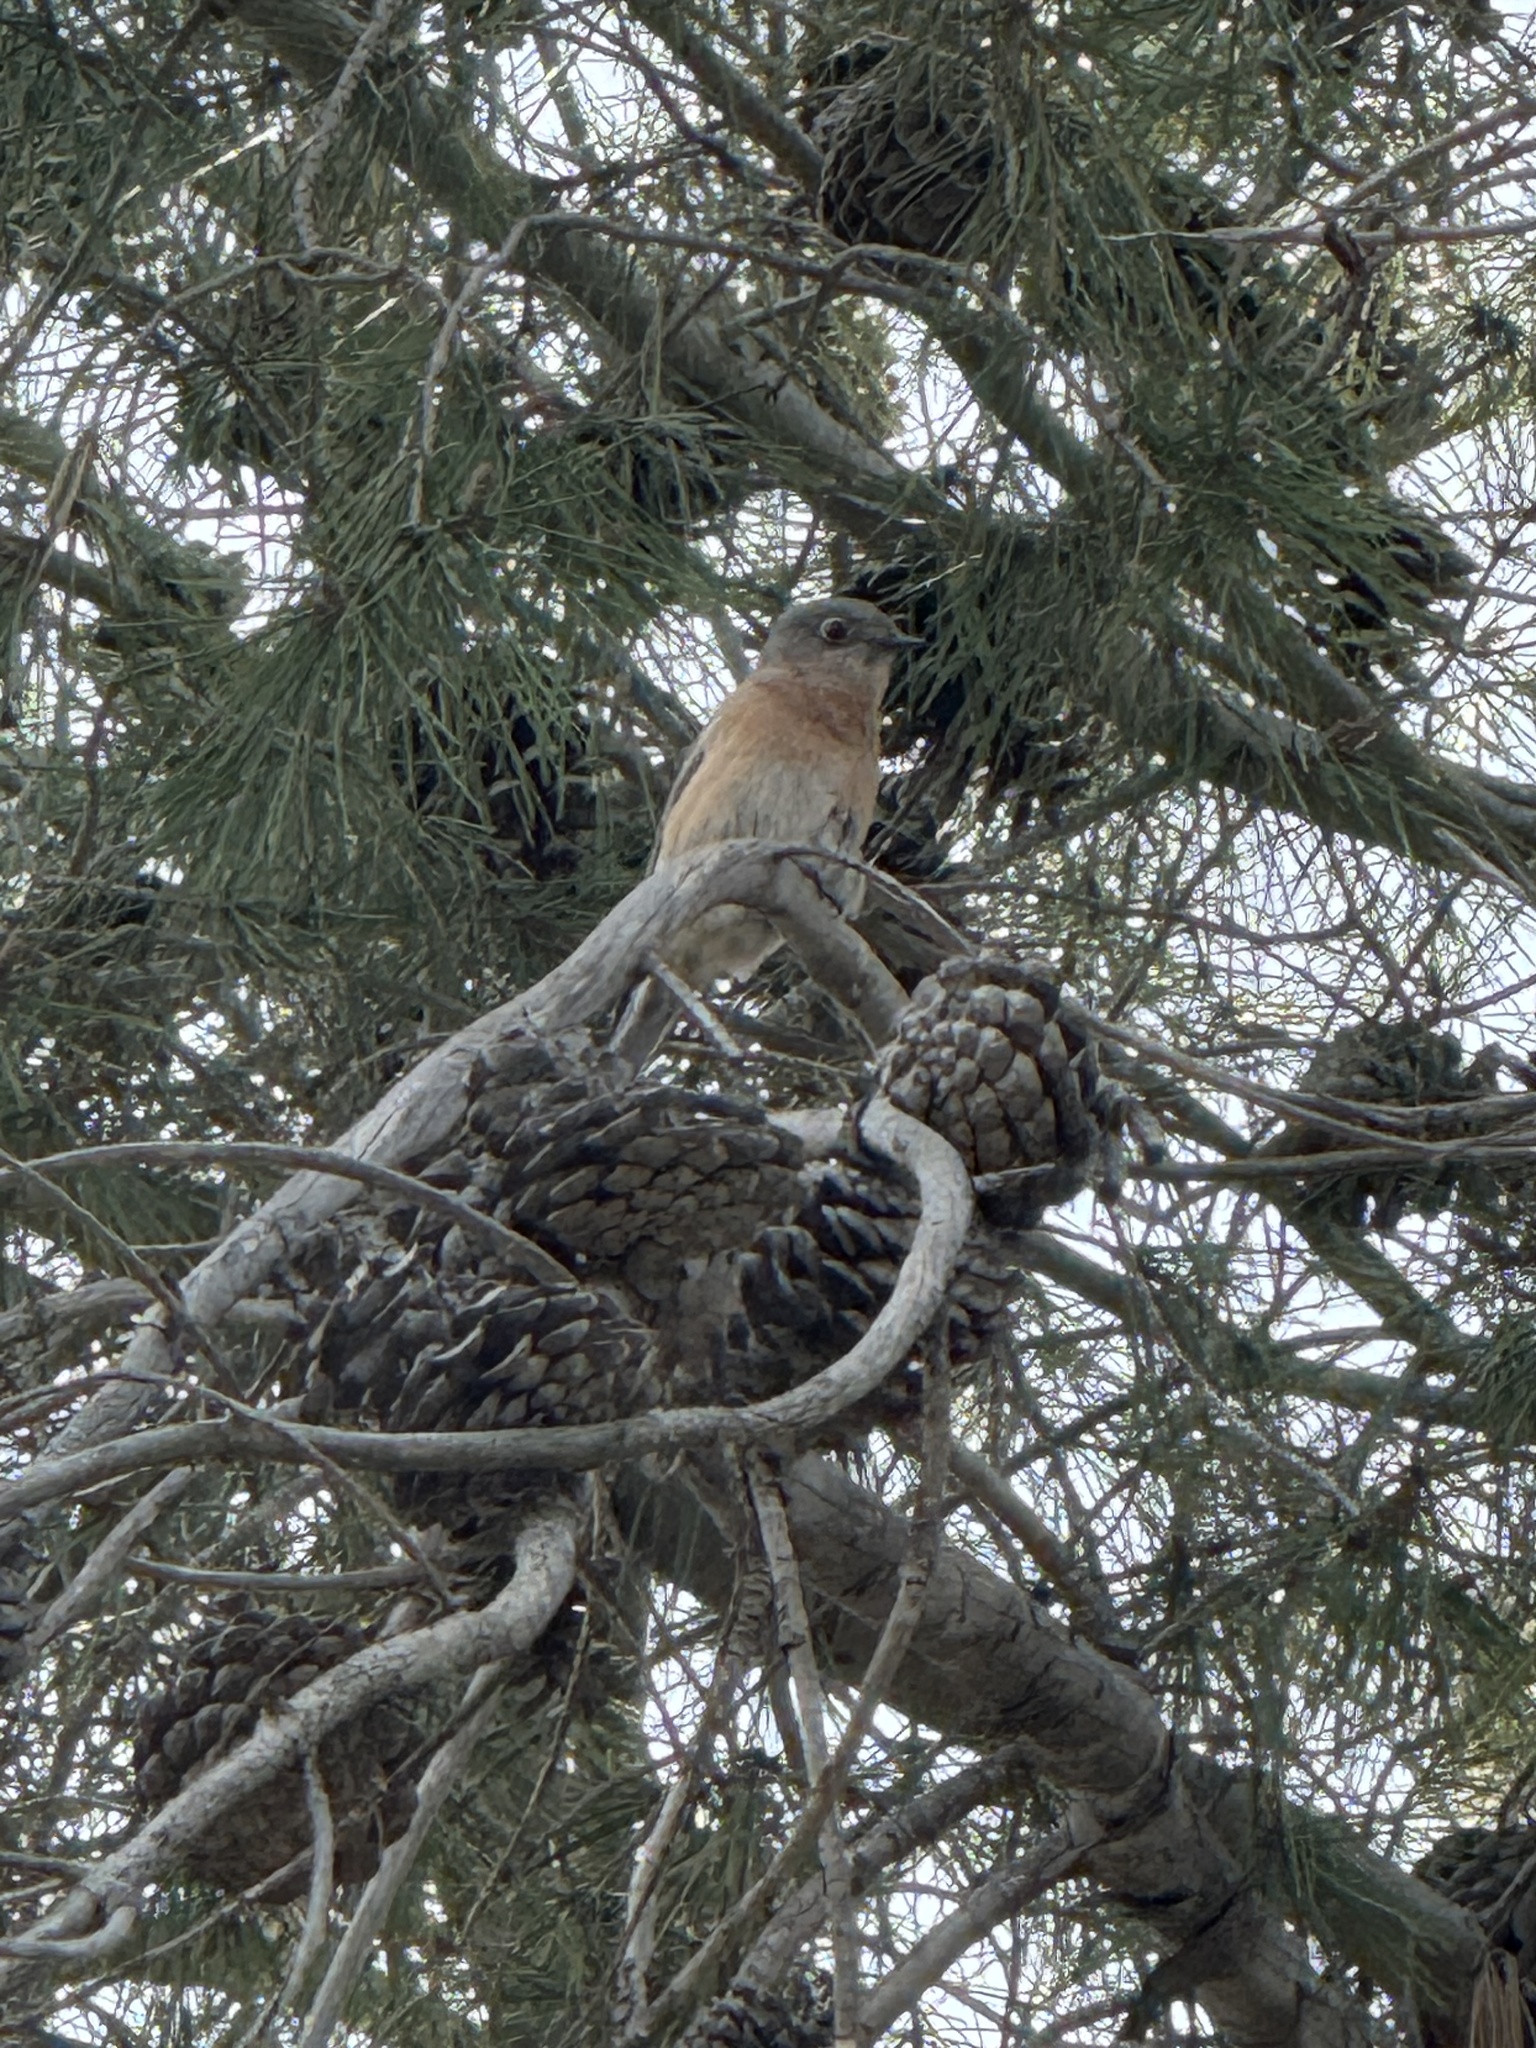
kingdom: Animalia
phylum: Chordata
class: Aves
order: Passeriformes
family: Turdidae
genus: Sialia
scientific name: Sialia mexicana
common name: Western bluebird
